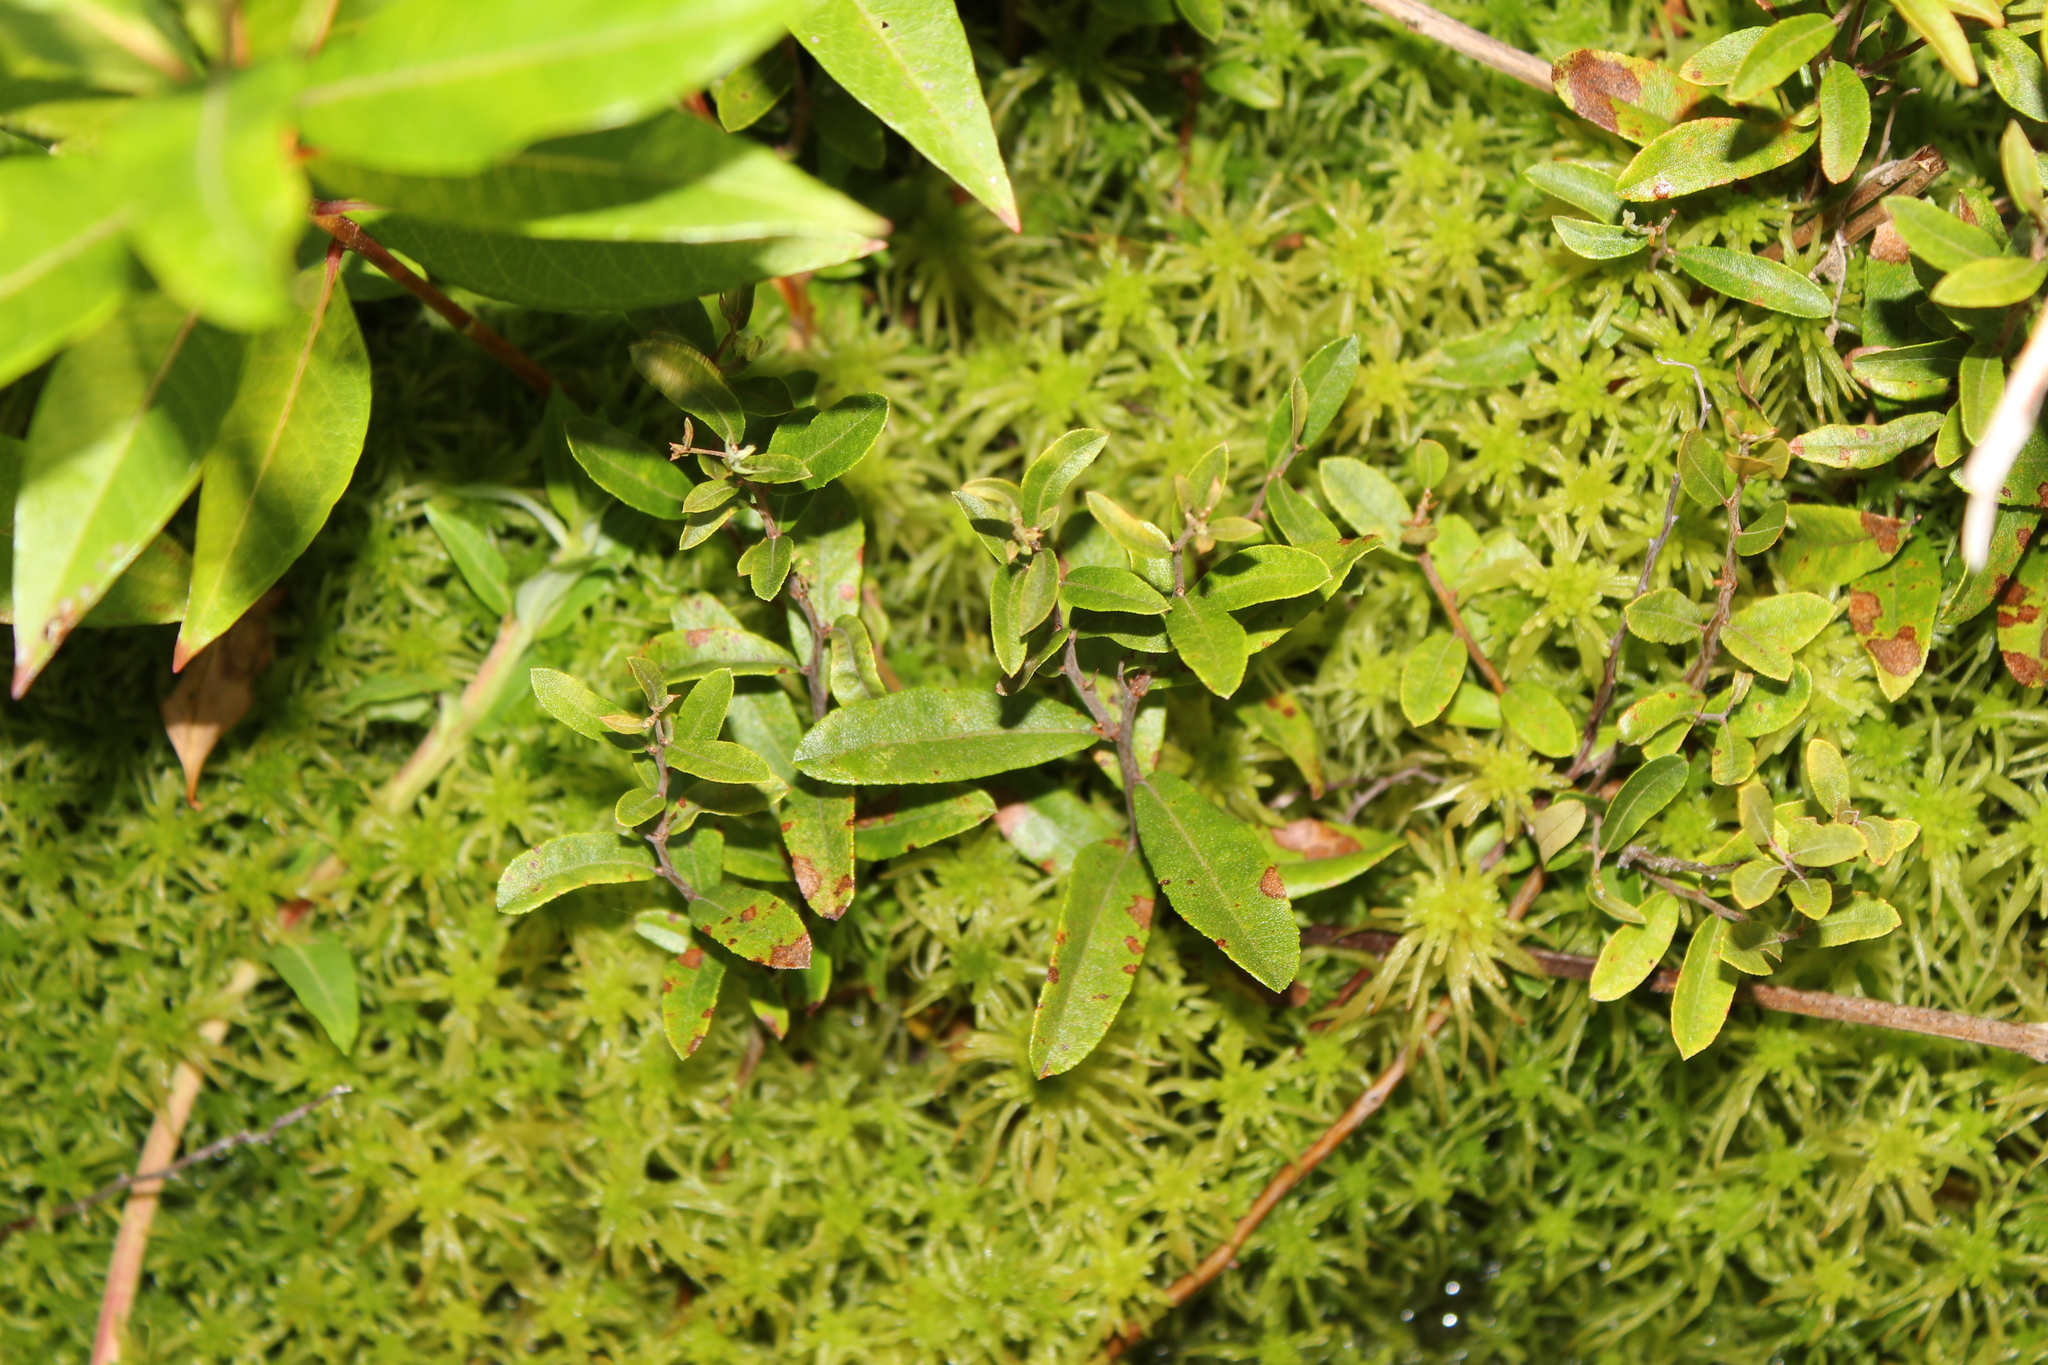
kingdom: Plantae
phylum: Tracheophyta
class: Magnoliopsida
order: Ericales
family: Ericaceae
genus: Chamaedaphne
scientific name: Chamaedaphne calyculata
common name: Leatherleaf
